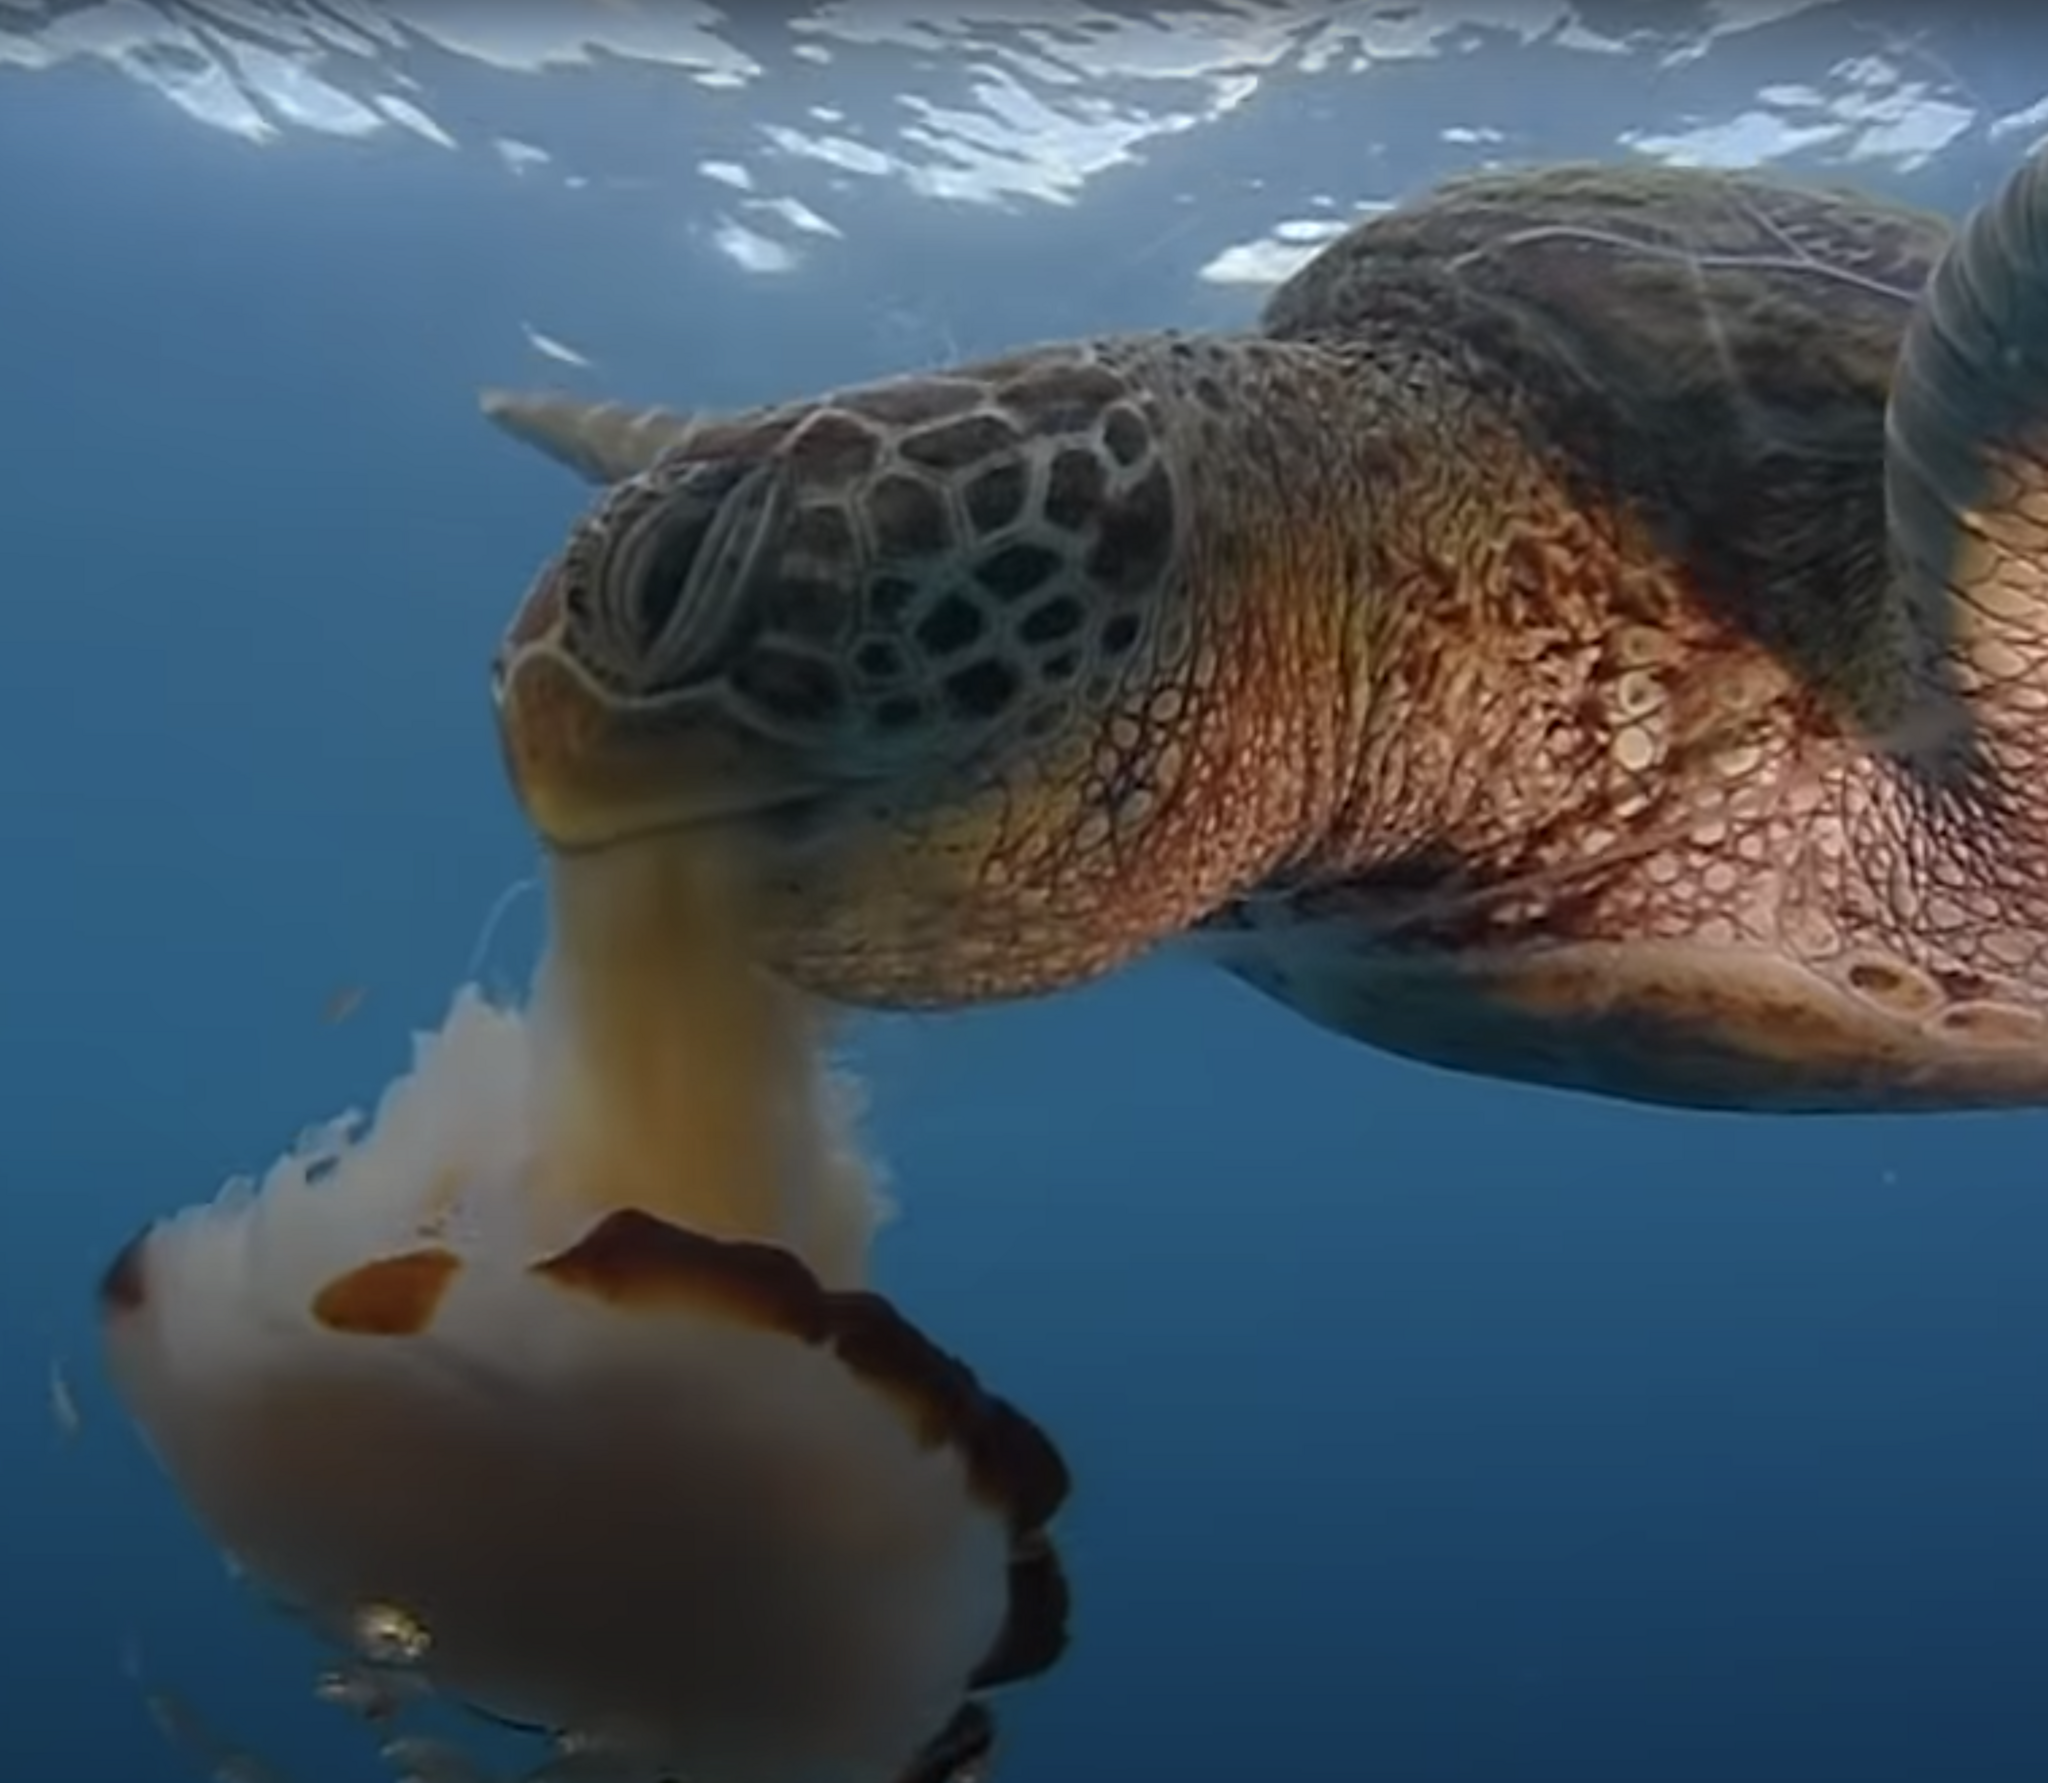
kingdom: Animalia
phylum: Chordata
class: Testudines
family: Cheloniidae
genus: Chelonia
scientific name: Chelonia mydas
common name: Green turtle
